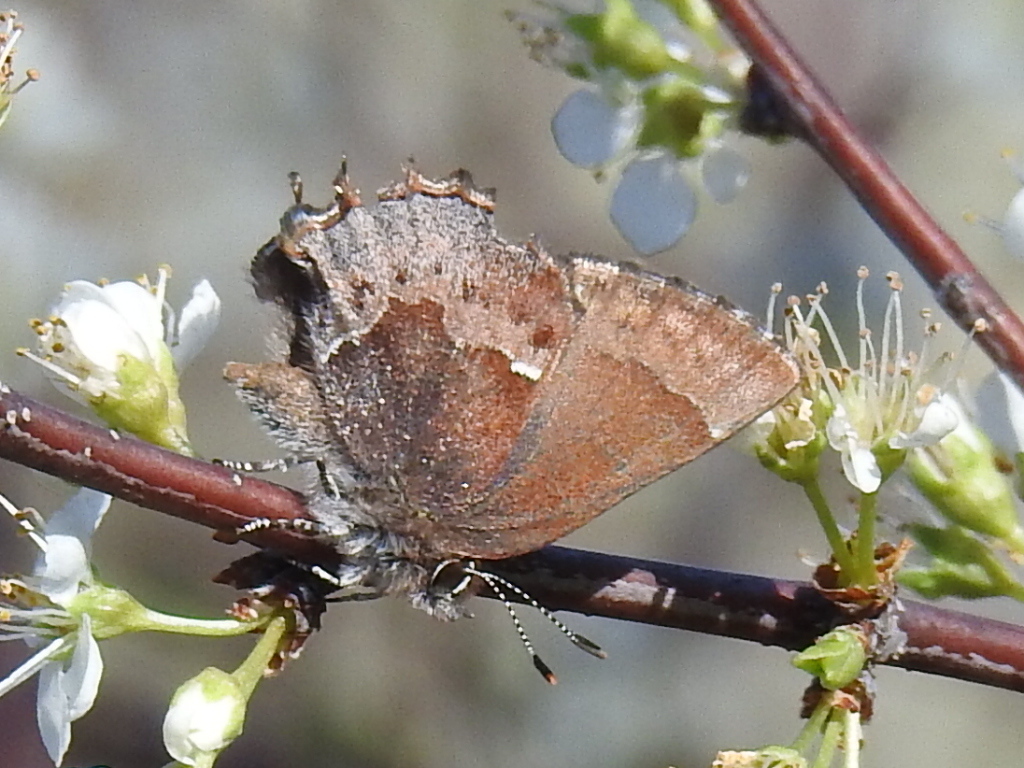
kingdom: Animalia
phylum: Arthropoda
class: Insecta
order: Lepidoptera
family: Lycaenidae
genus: Incisalia
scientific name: Incisalia henrici
